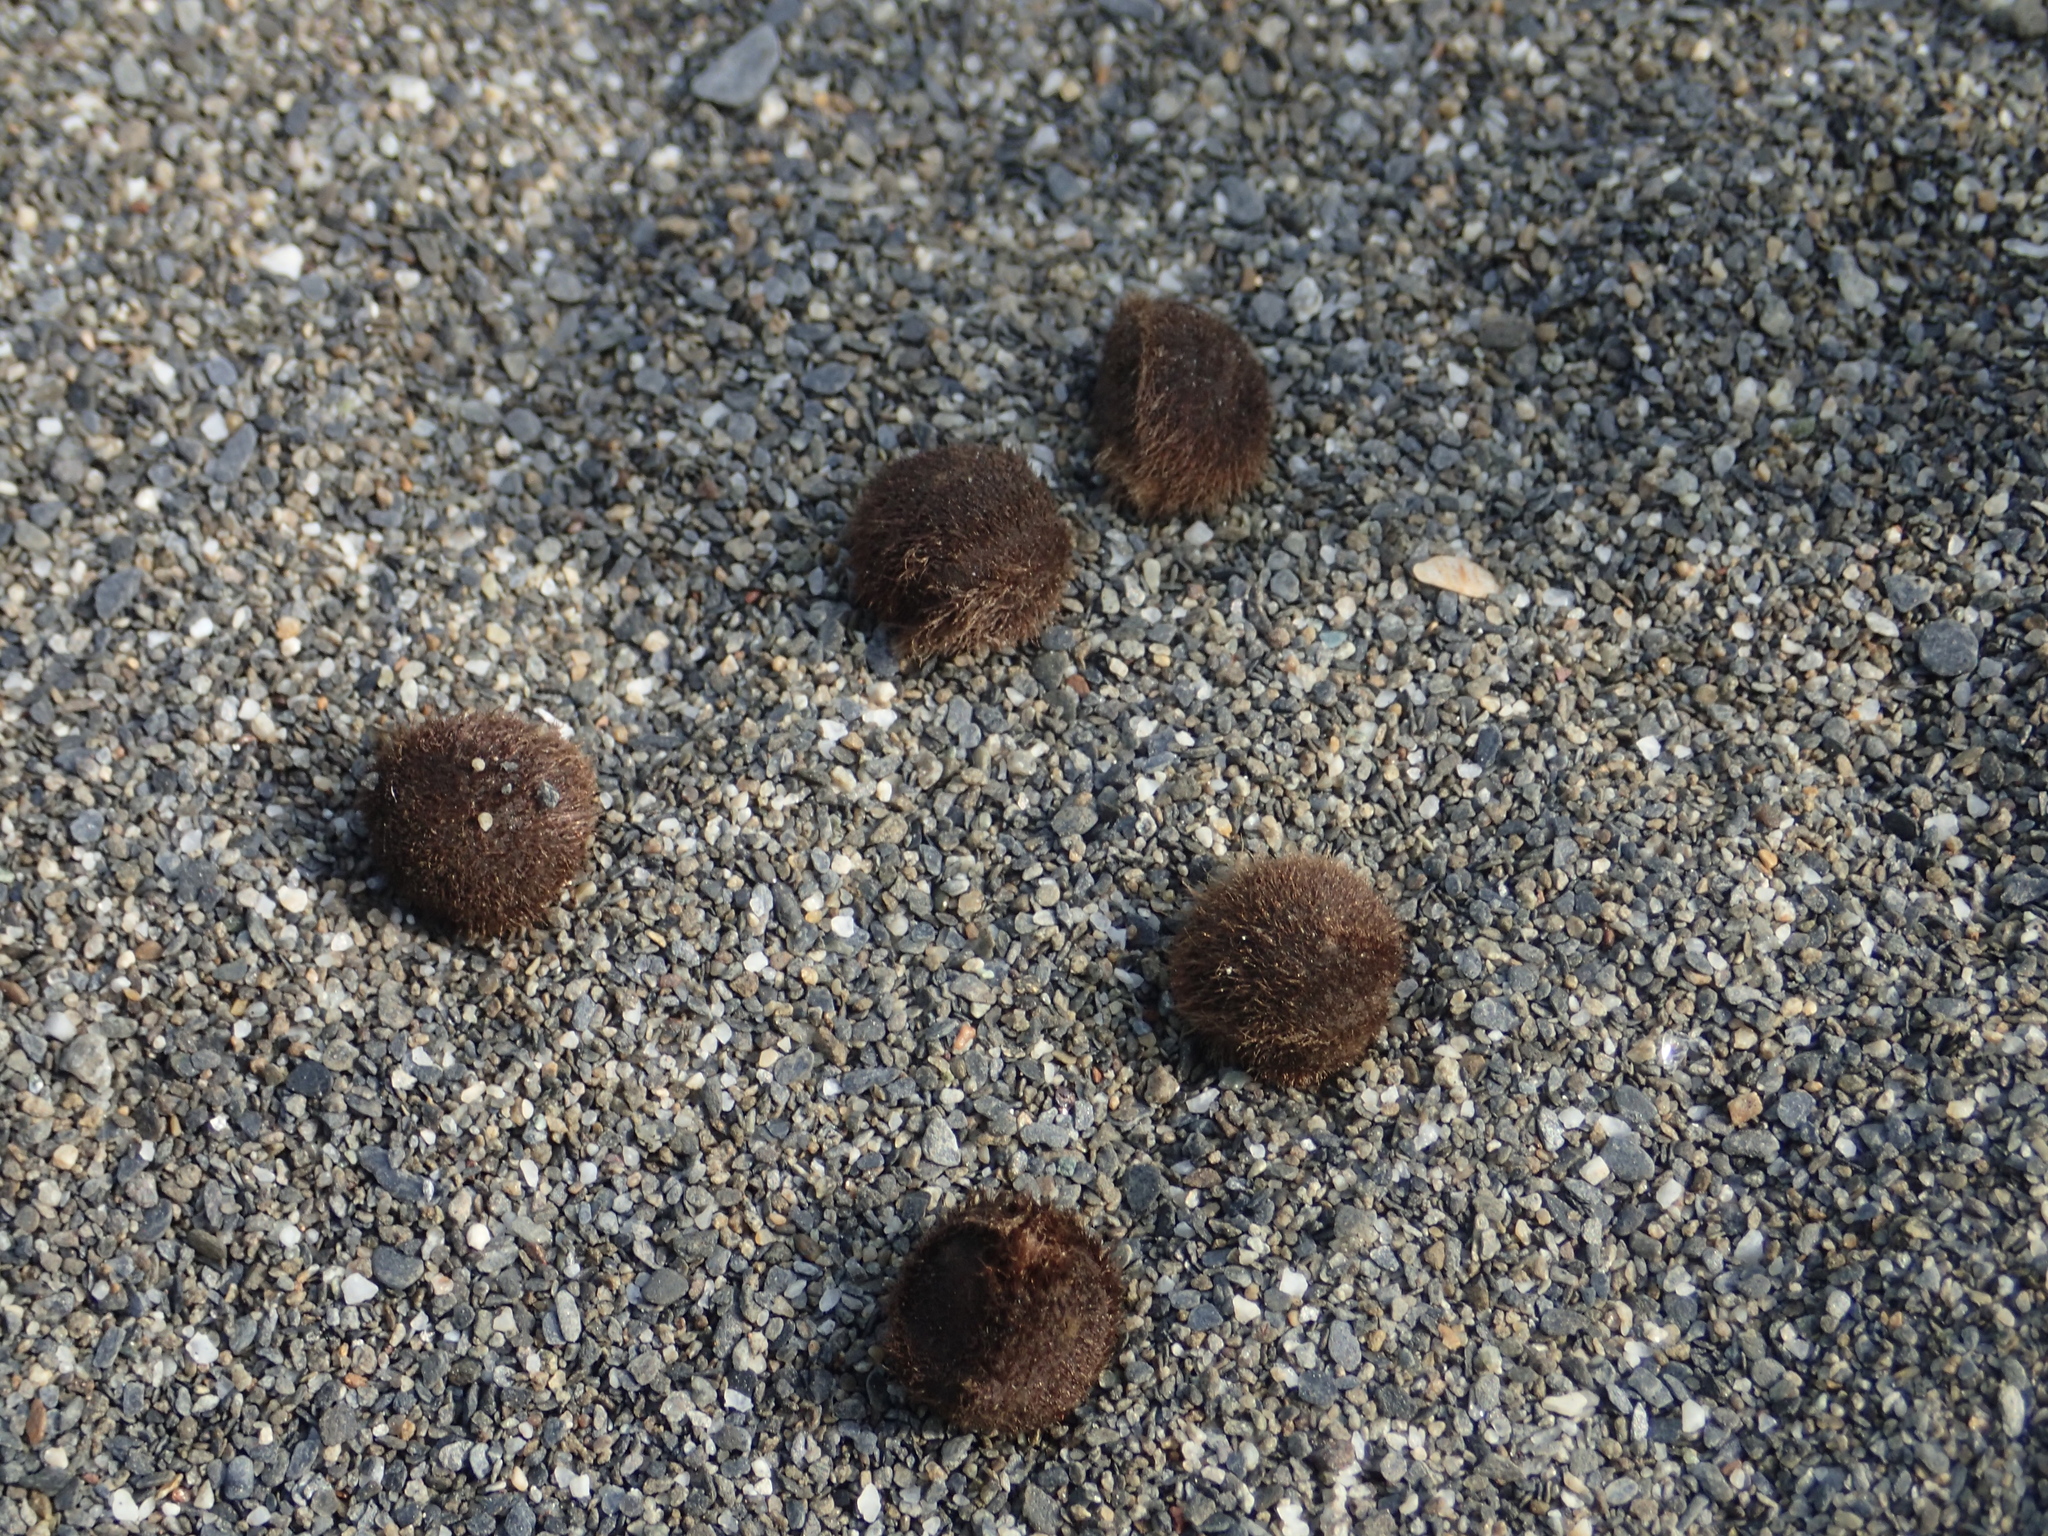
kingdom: Plantae
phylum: Tracheophyta
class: Magnoliopsida
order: Solanales
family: Convolvulaceae
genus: Ipomoea
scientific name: Ipomoea pes-caprae
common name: Beach morning glory
